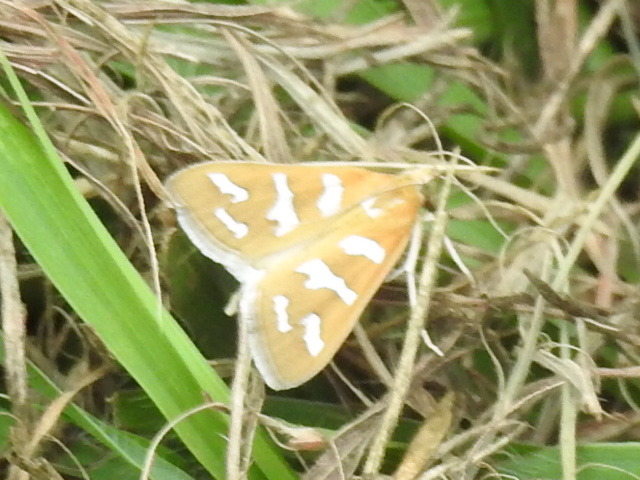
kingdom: Animalia
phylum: Arthropoda
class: Insecta
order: Lepidoptera
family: Crambidae
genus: Diastictis
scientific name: Diastictis fracturalis
